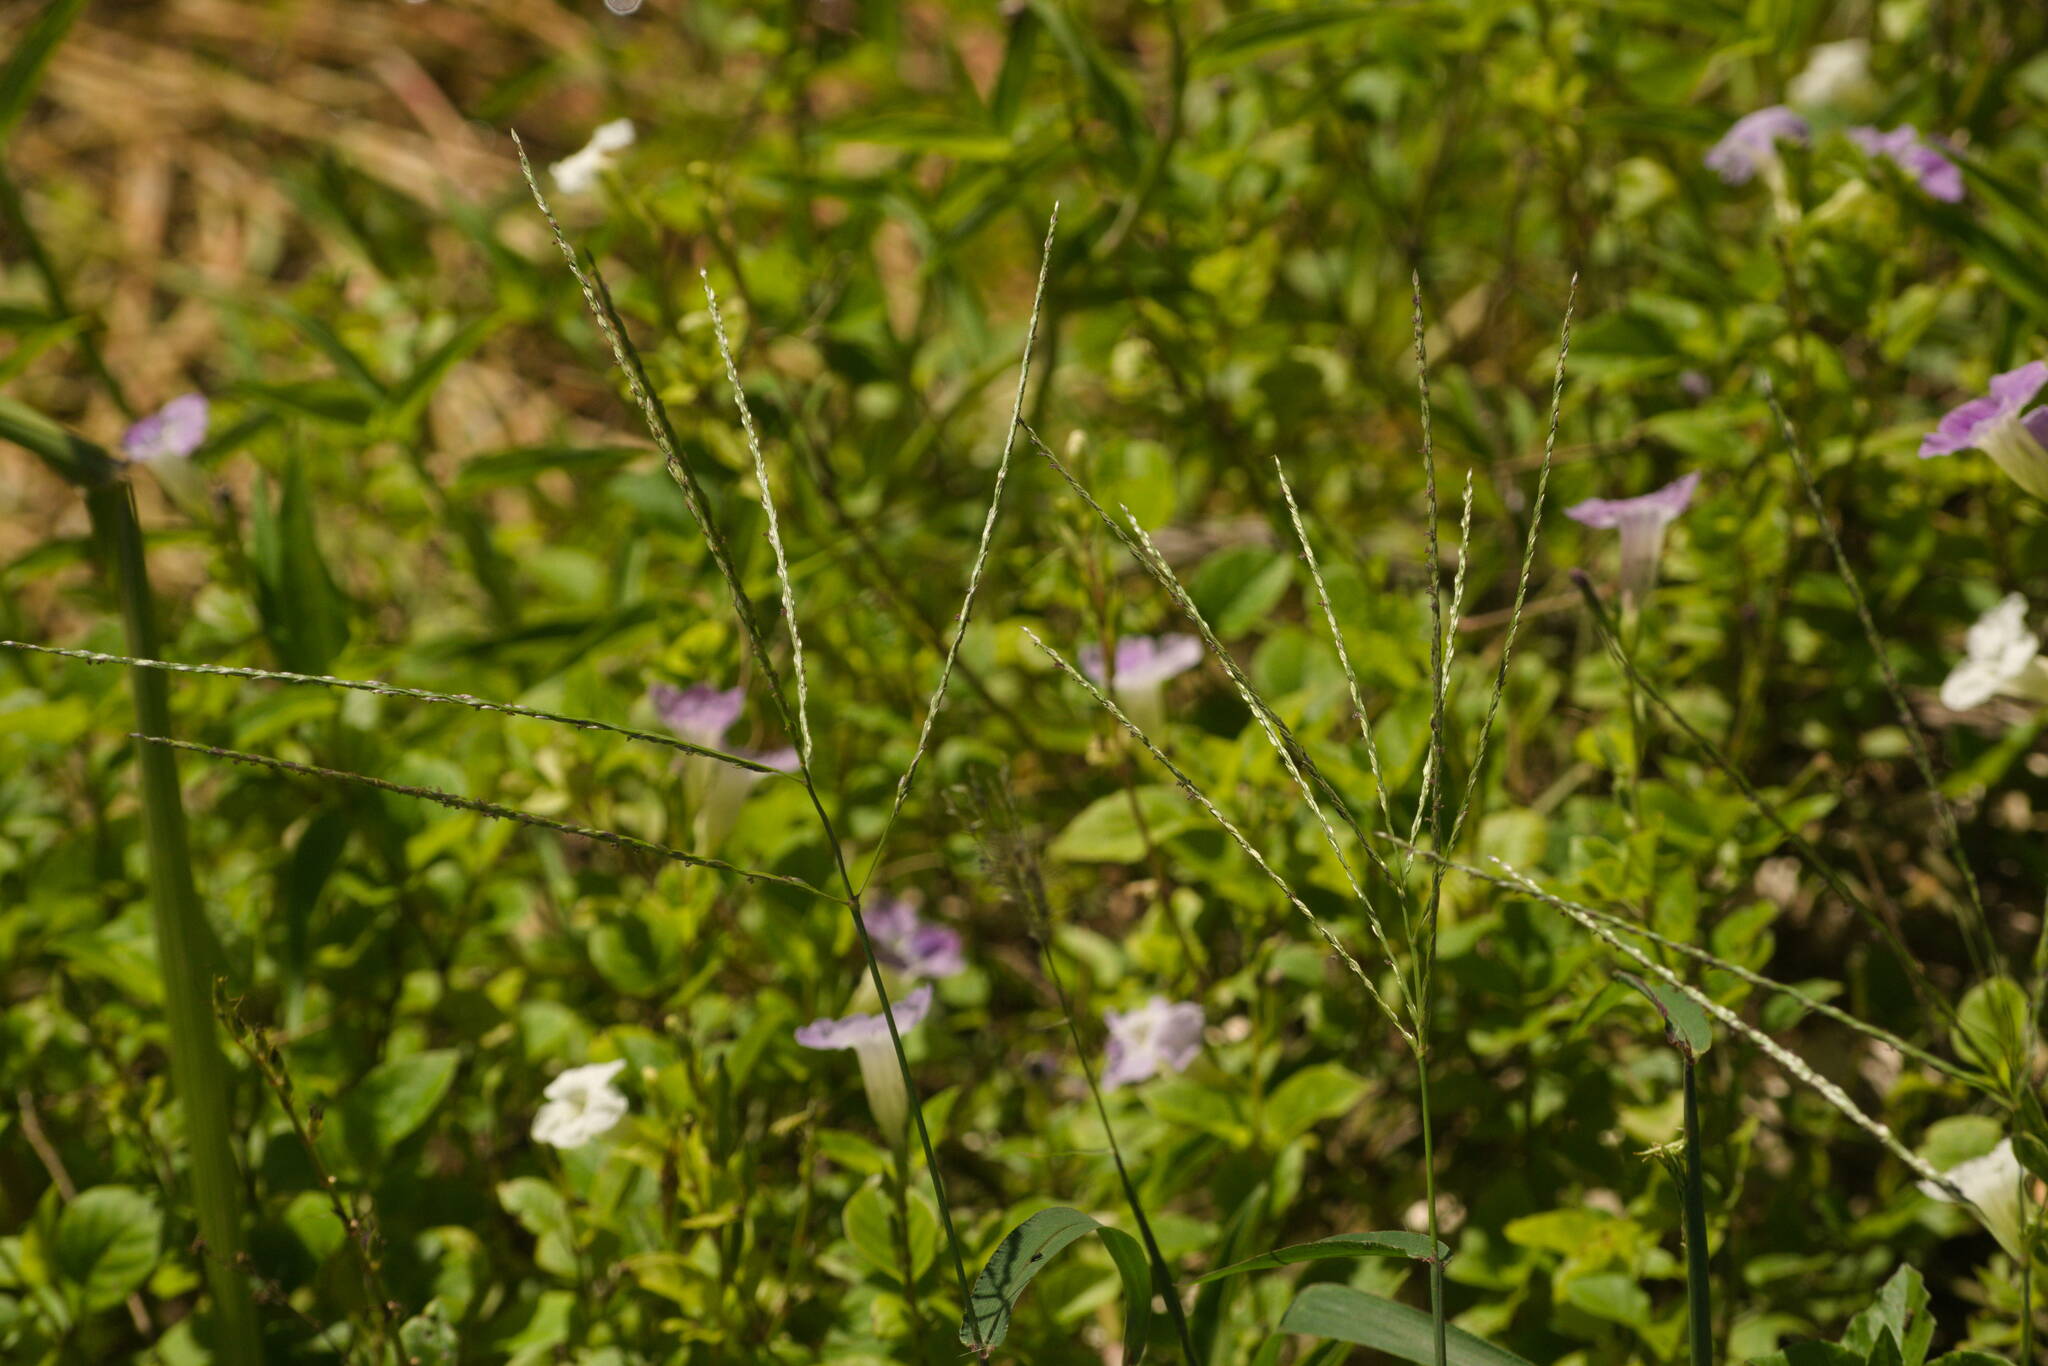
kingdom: Plantae
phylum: Tracheophyta
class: Liliopsida
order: Poales
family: Poaceae
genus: Digitaria
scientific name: Digitaria ciliaris
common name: Tropical finger-grass
